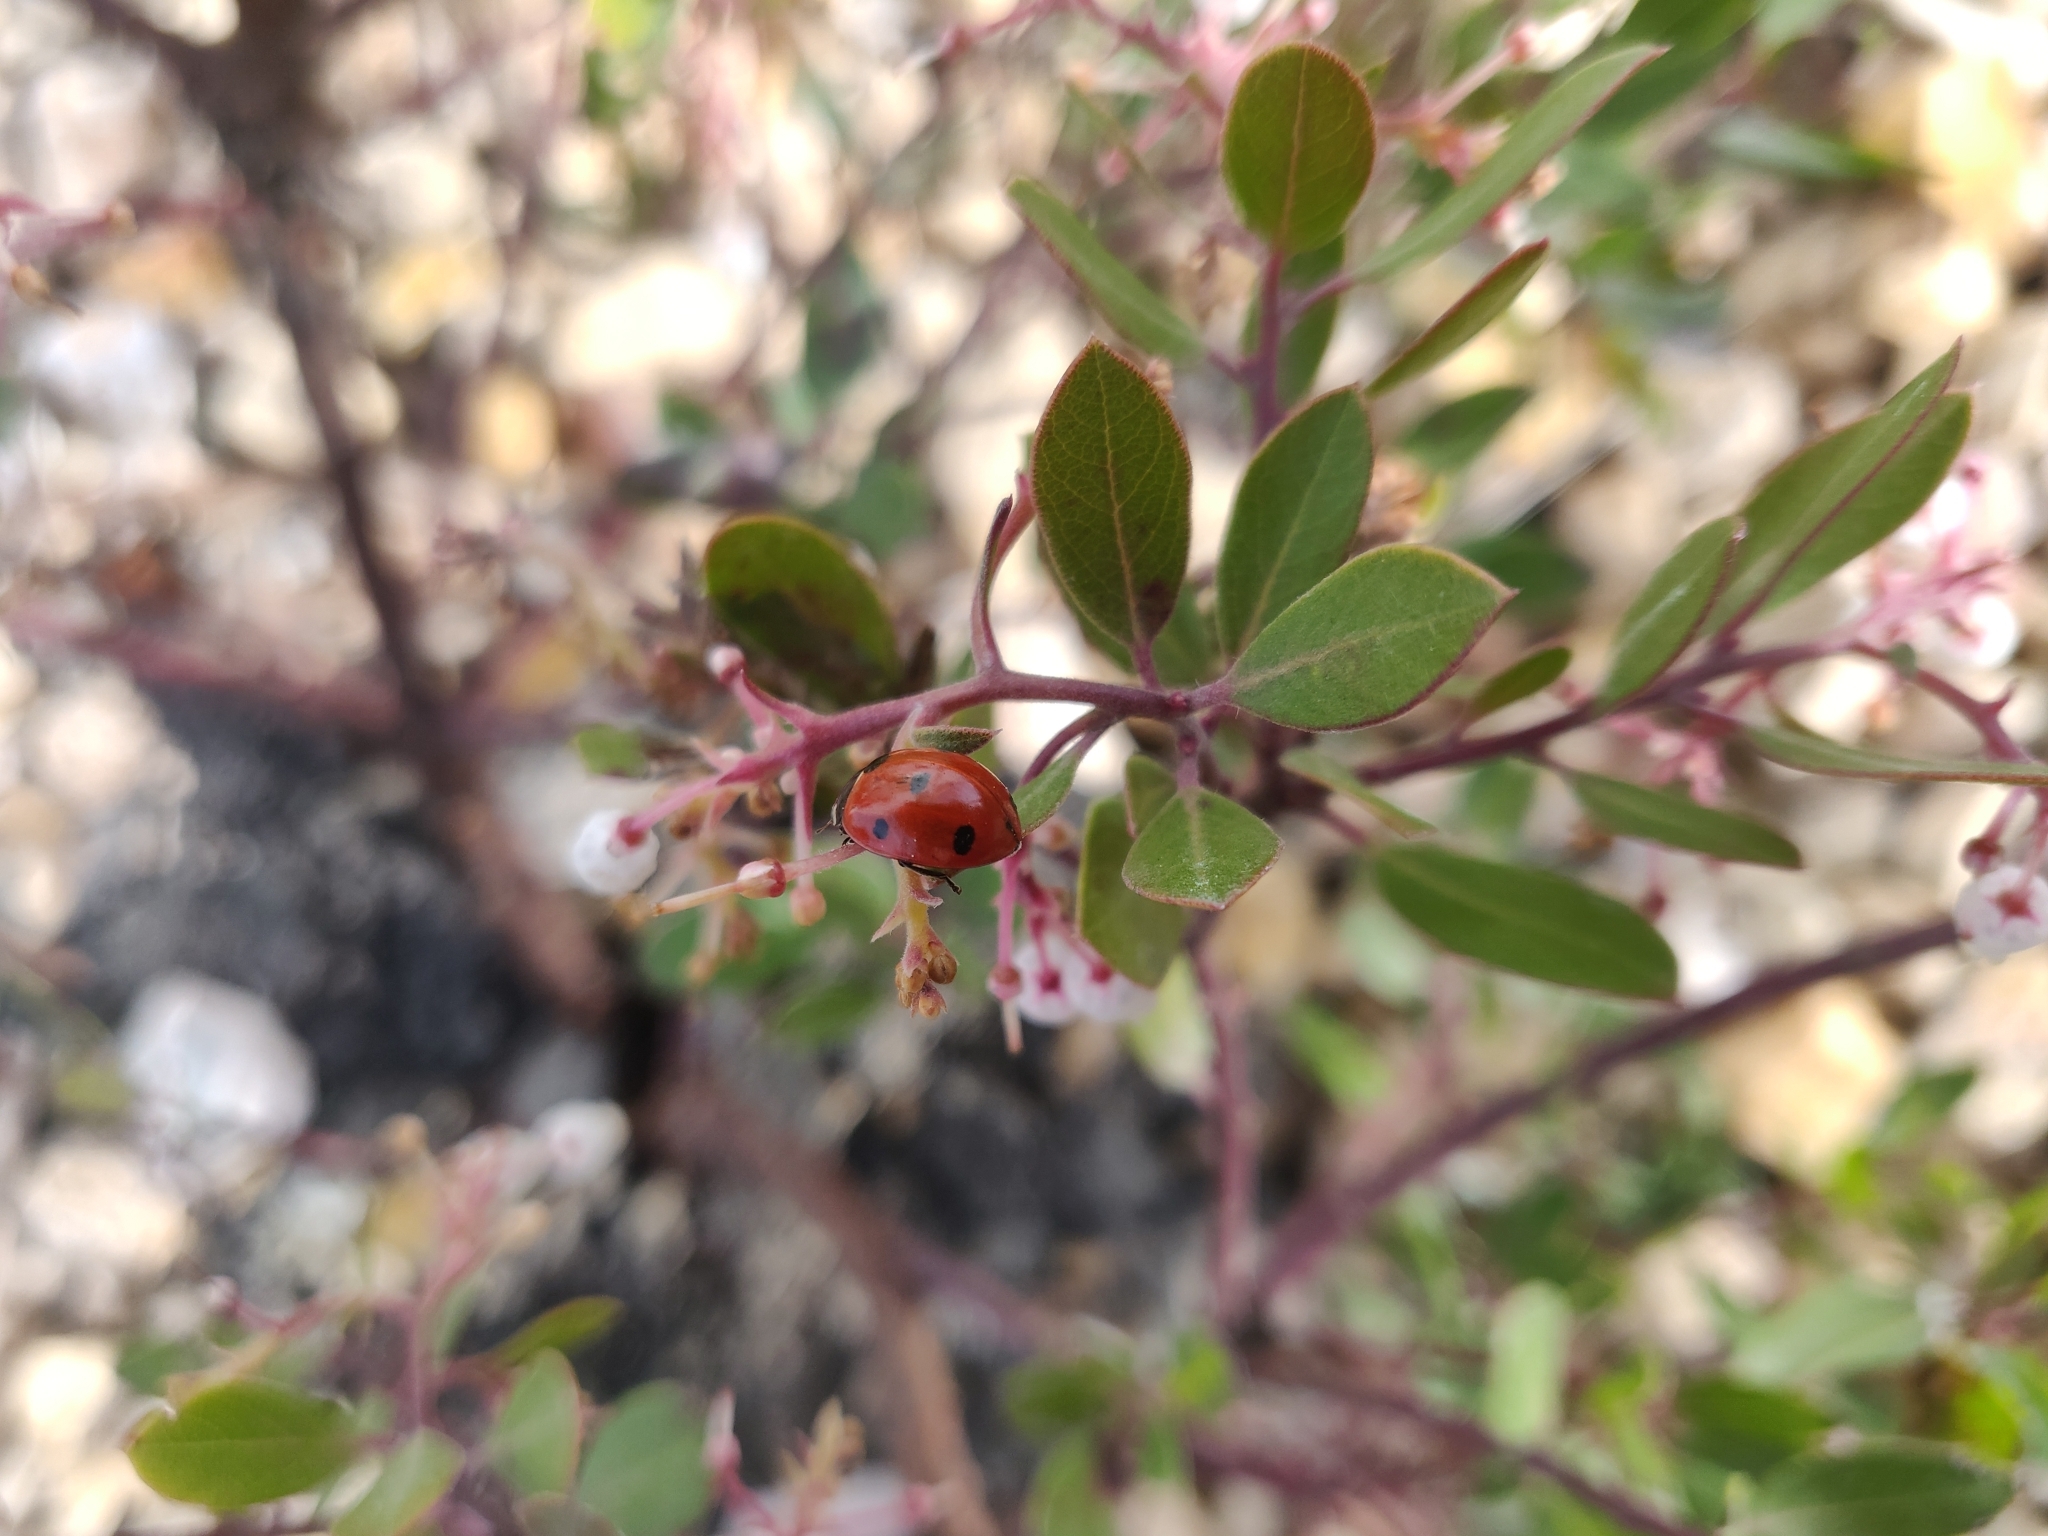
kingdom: Animalia
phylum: Arthropoda
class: Insecta
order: Coleoptera
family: Coccinellidae
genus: Coccinella
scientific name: Coccinella septempunctata
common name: Sevenspotted lady beetle
